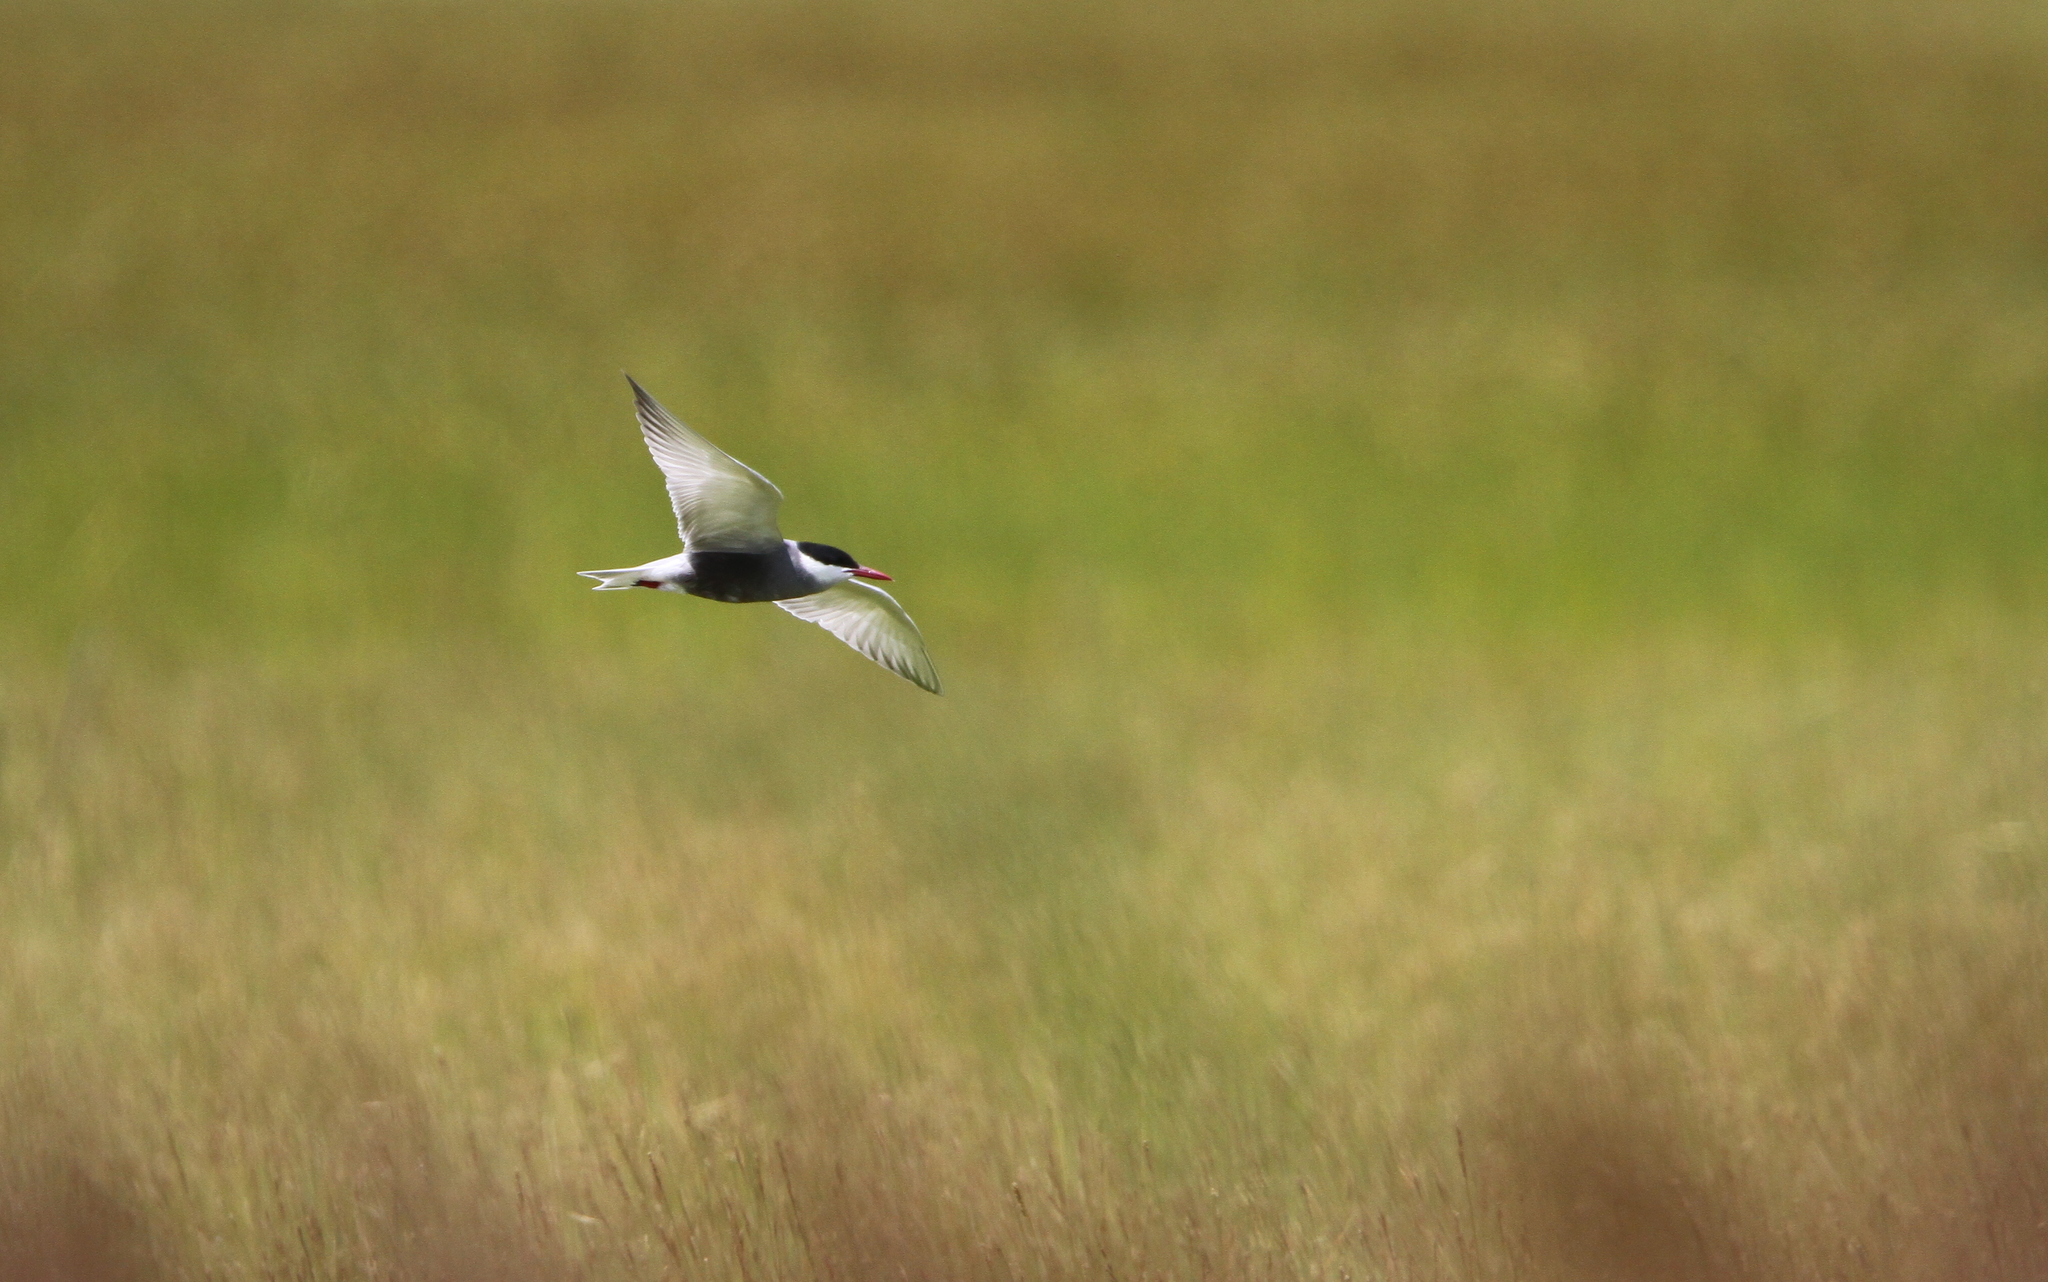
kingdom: Animalia
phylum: Chordata
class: Aves
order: Charadriiformes
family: Laridae
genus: Chlidonias
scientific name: Chlidonias hybrida
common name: Whiskered tern
